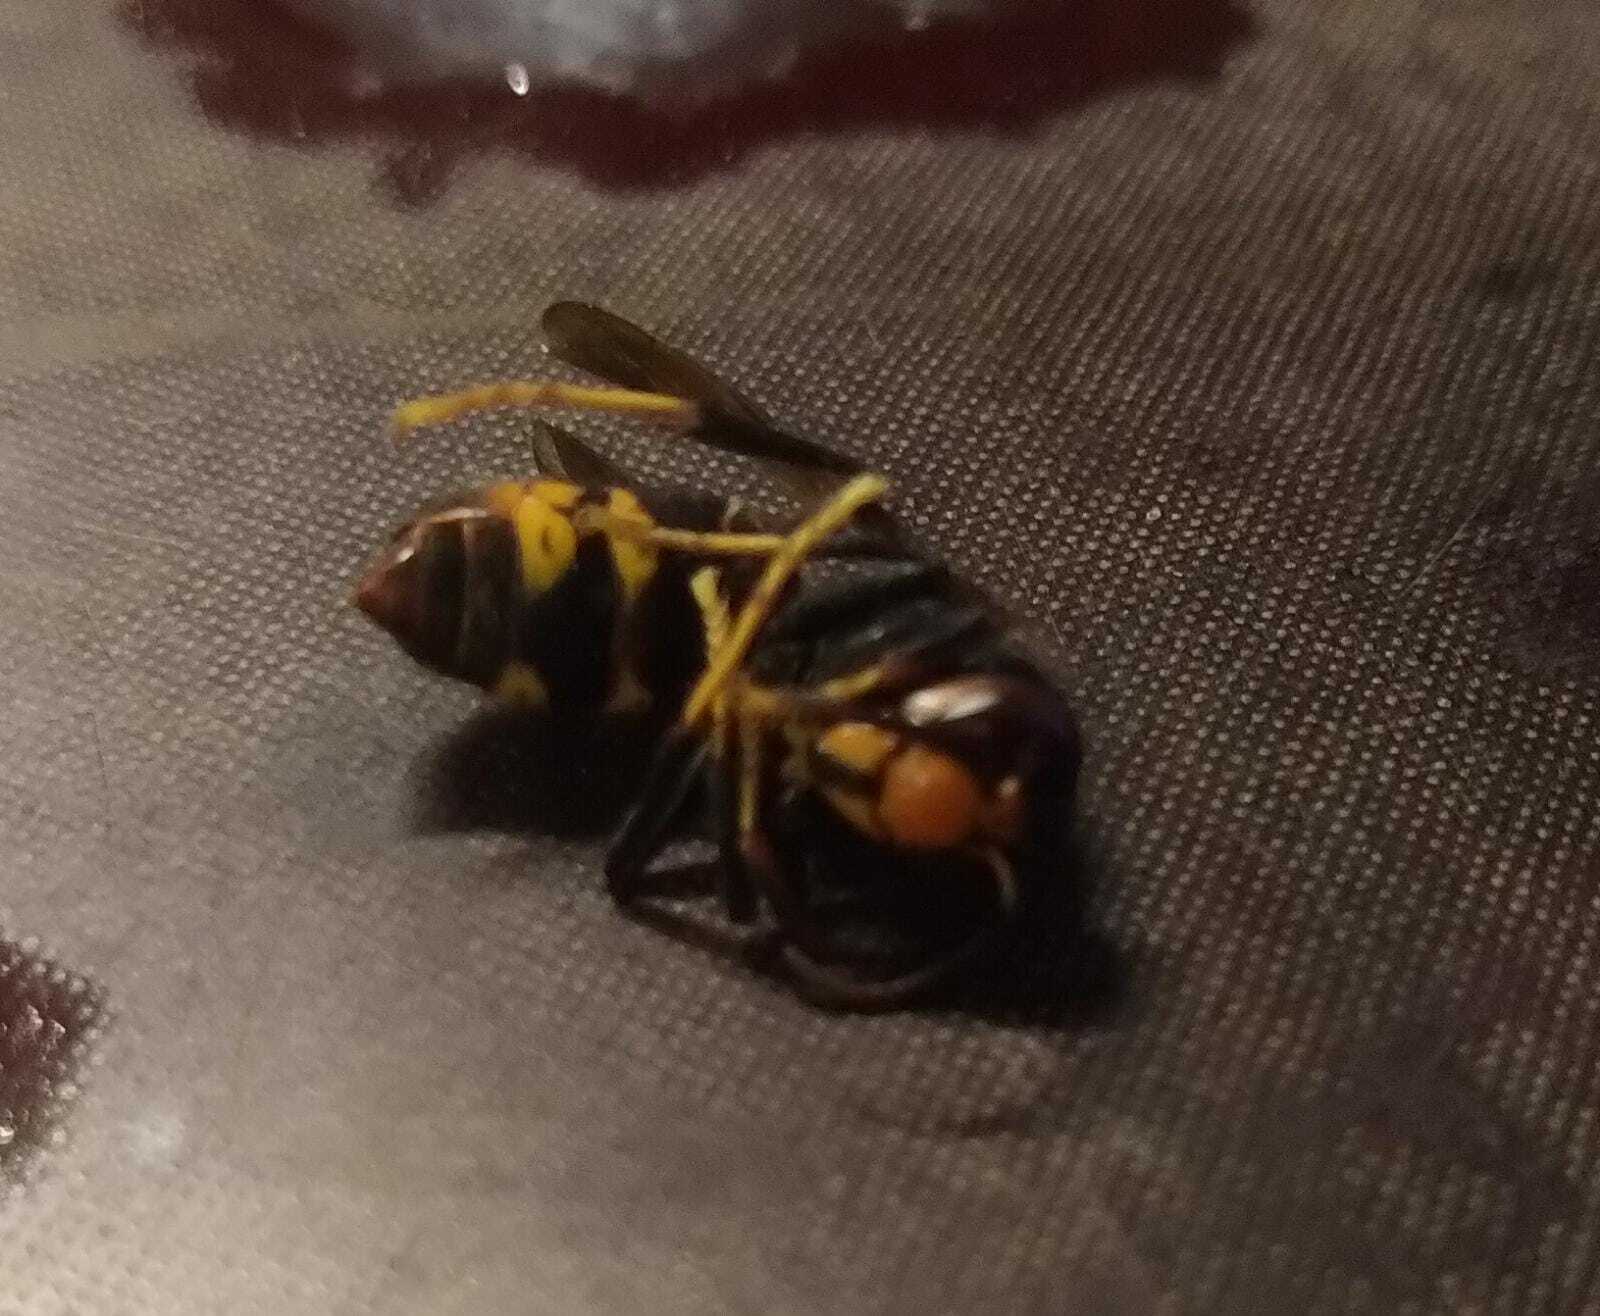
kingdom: Animalia
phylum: Arthropoda
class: Insecta
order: Hymenoptera
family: Vespidae
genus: Vespa
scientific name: Vespa velutina
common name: Asian hornet
